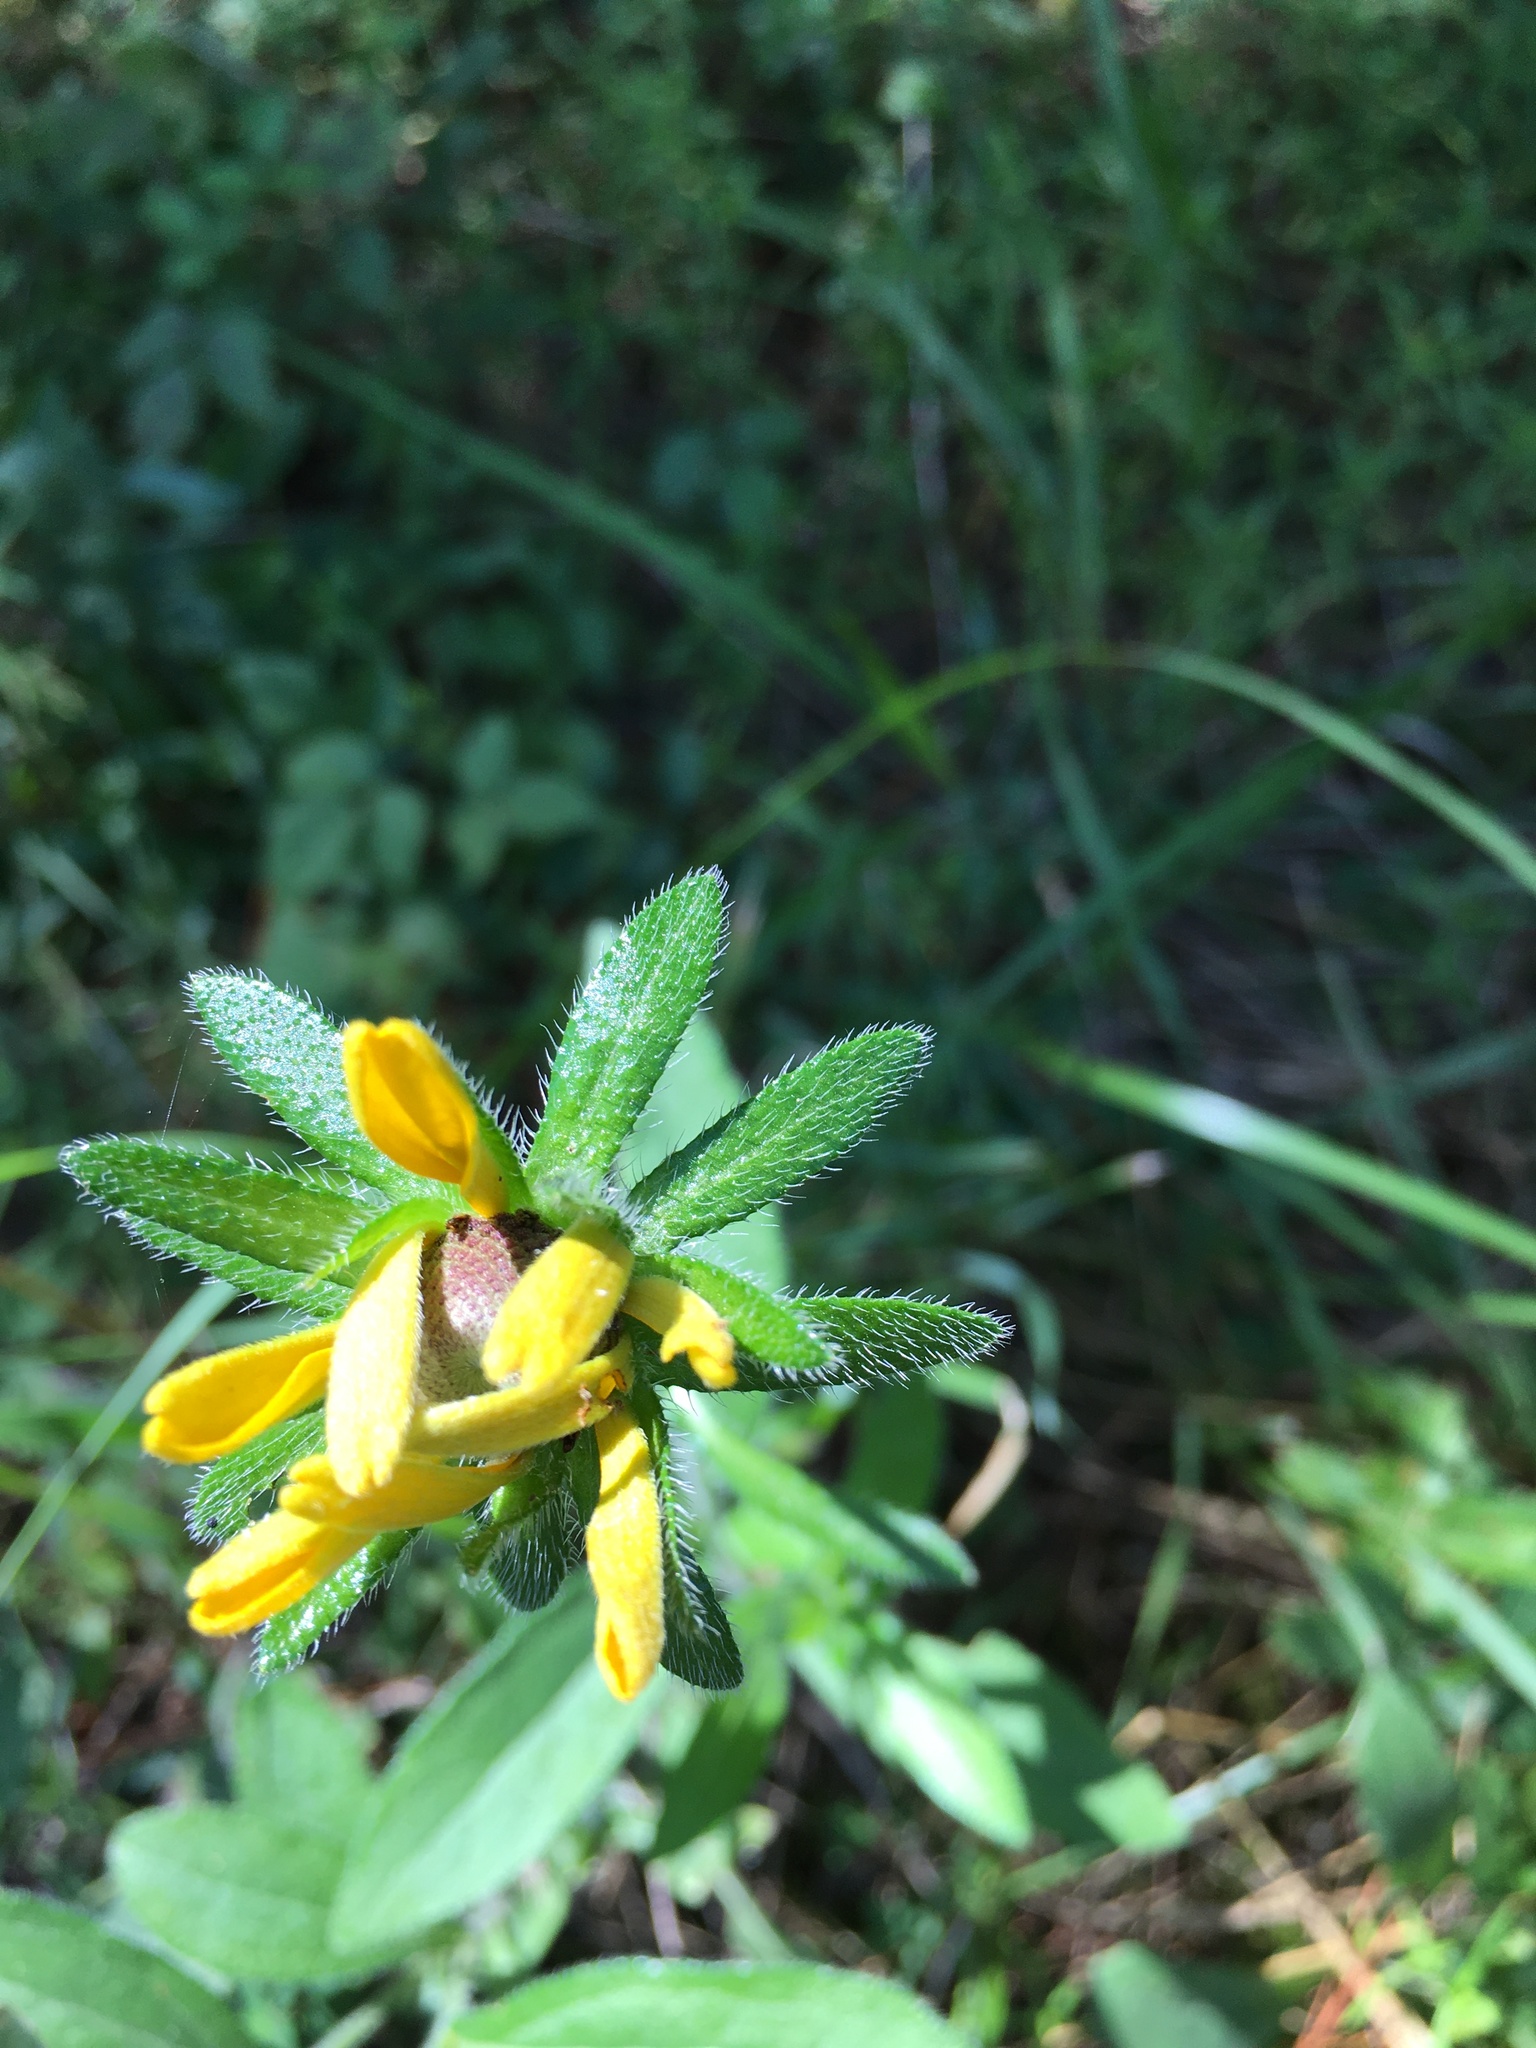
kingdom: Plantae
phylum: Tracheophyta
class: Magnoliopsida
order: Asterales
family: Asteraceae
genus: Rudbeckia
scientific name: Rudbeckia hirta
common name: Black-eyed-susan
